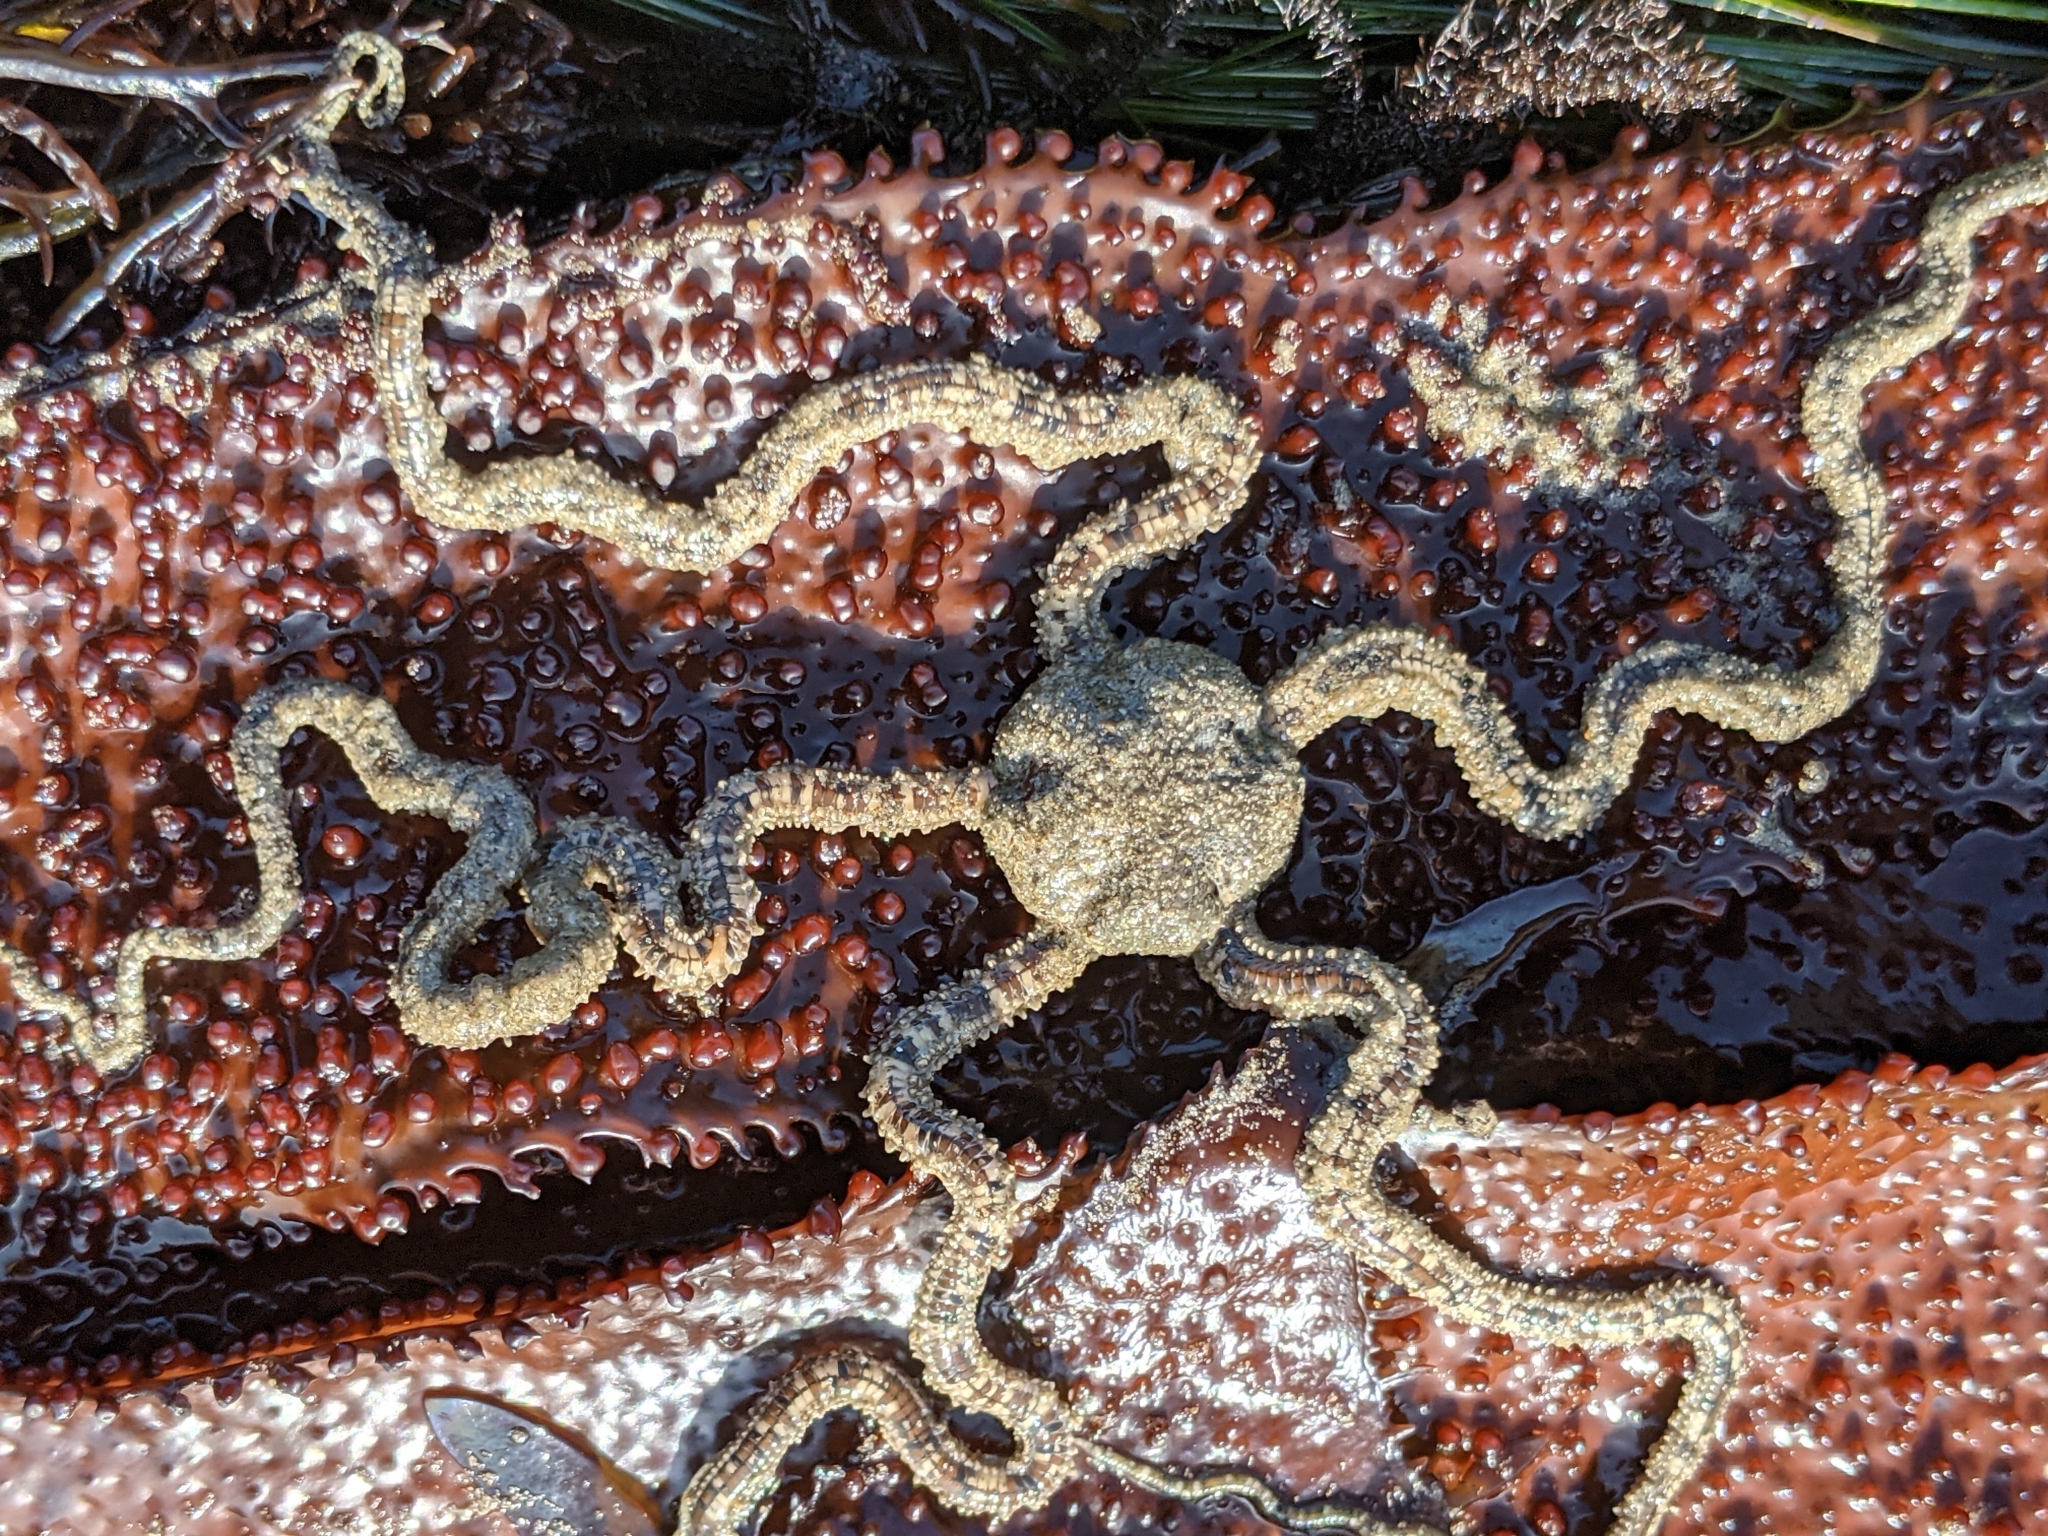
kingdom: Animalia
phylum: Echinodermata
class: Ophiuroidea
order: Amphilepidida
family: Amphiuridae
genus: Amphiodia
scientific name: Amphiodia occidentalis
